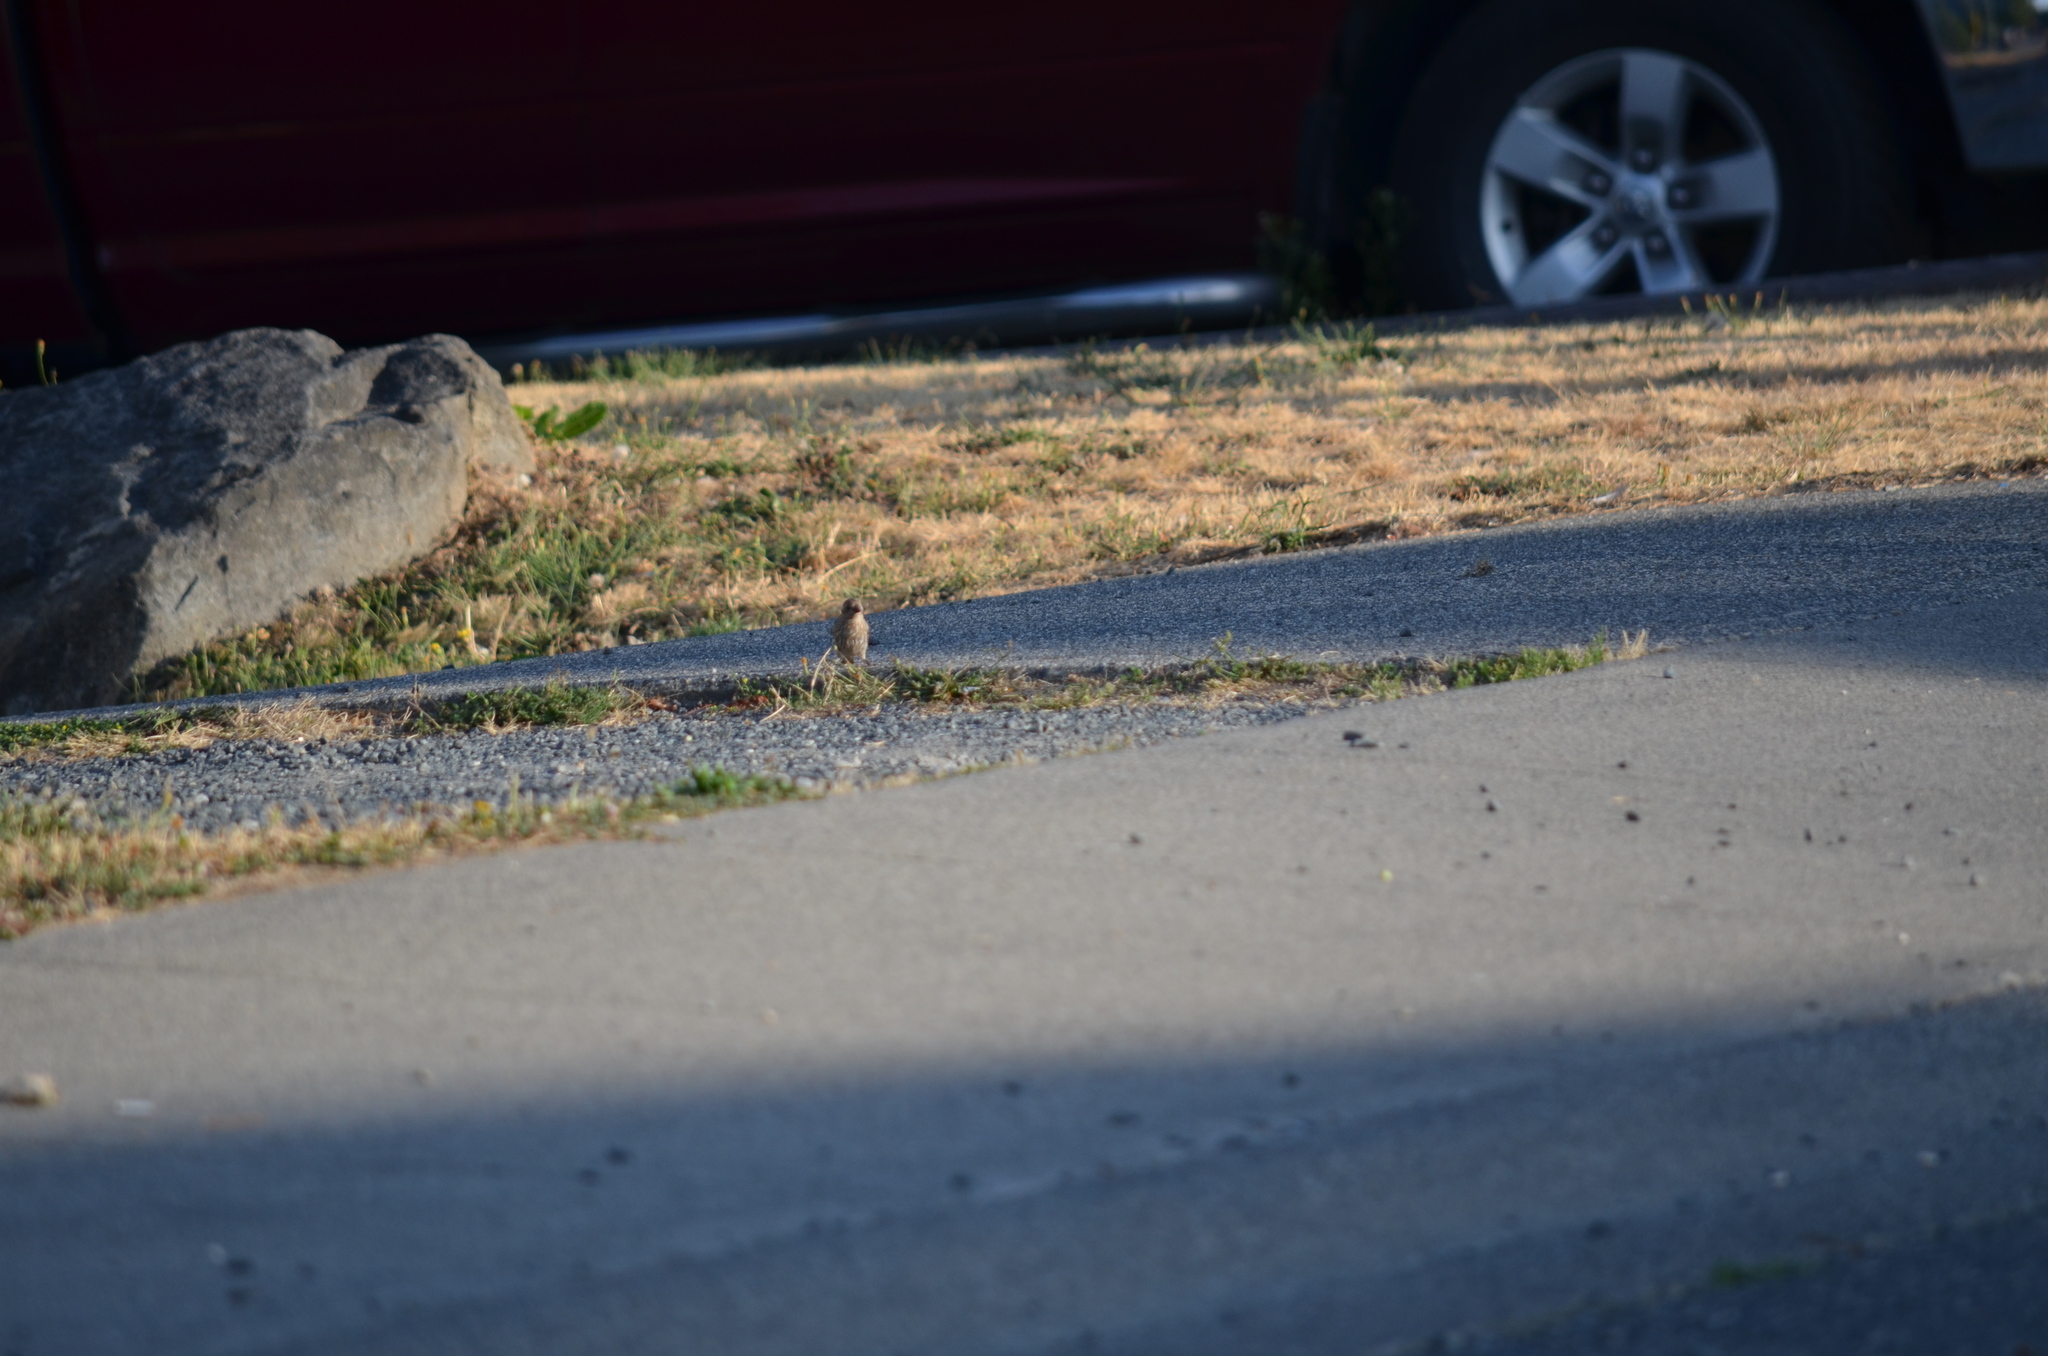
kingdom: Animalia
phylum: Chordata
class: Aves
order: Passeriformes
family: Fringillidae
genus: Haemorhous
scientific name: Haemorhous mexicanus
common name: House finch
